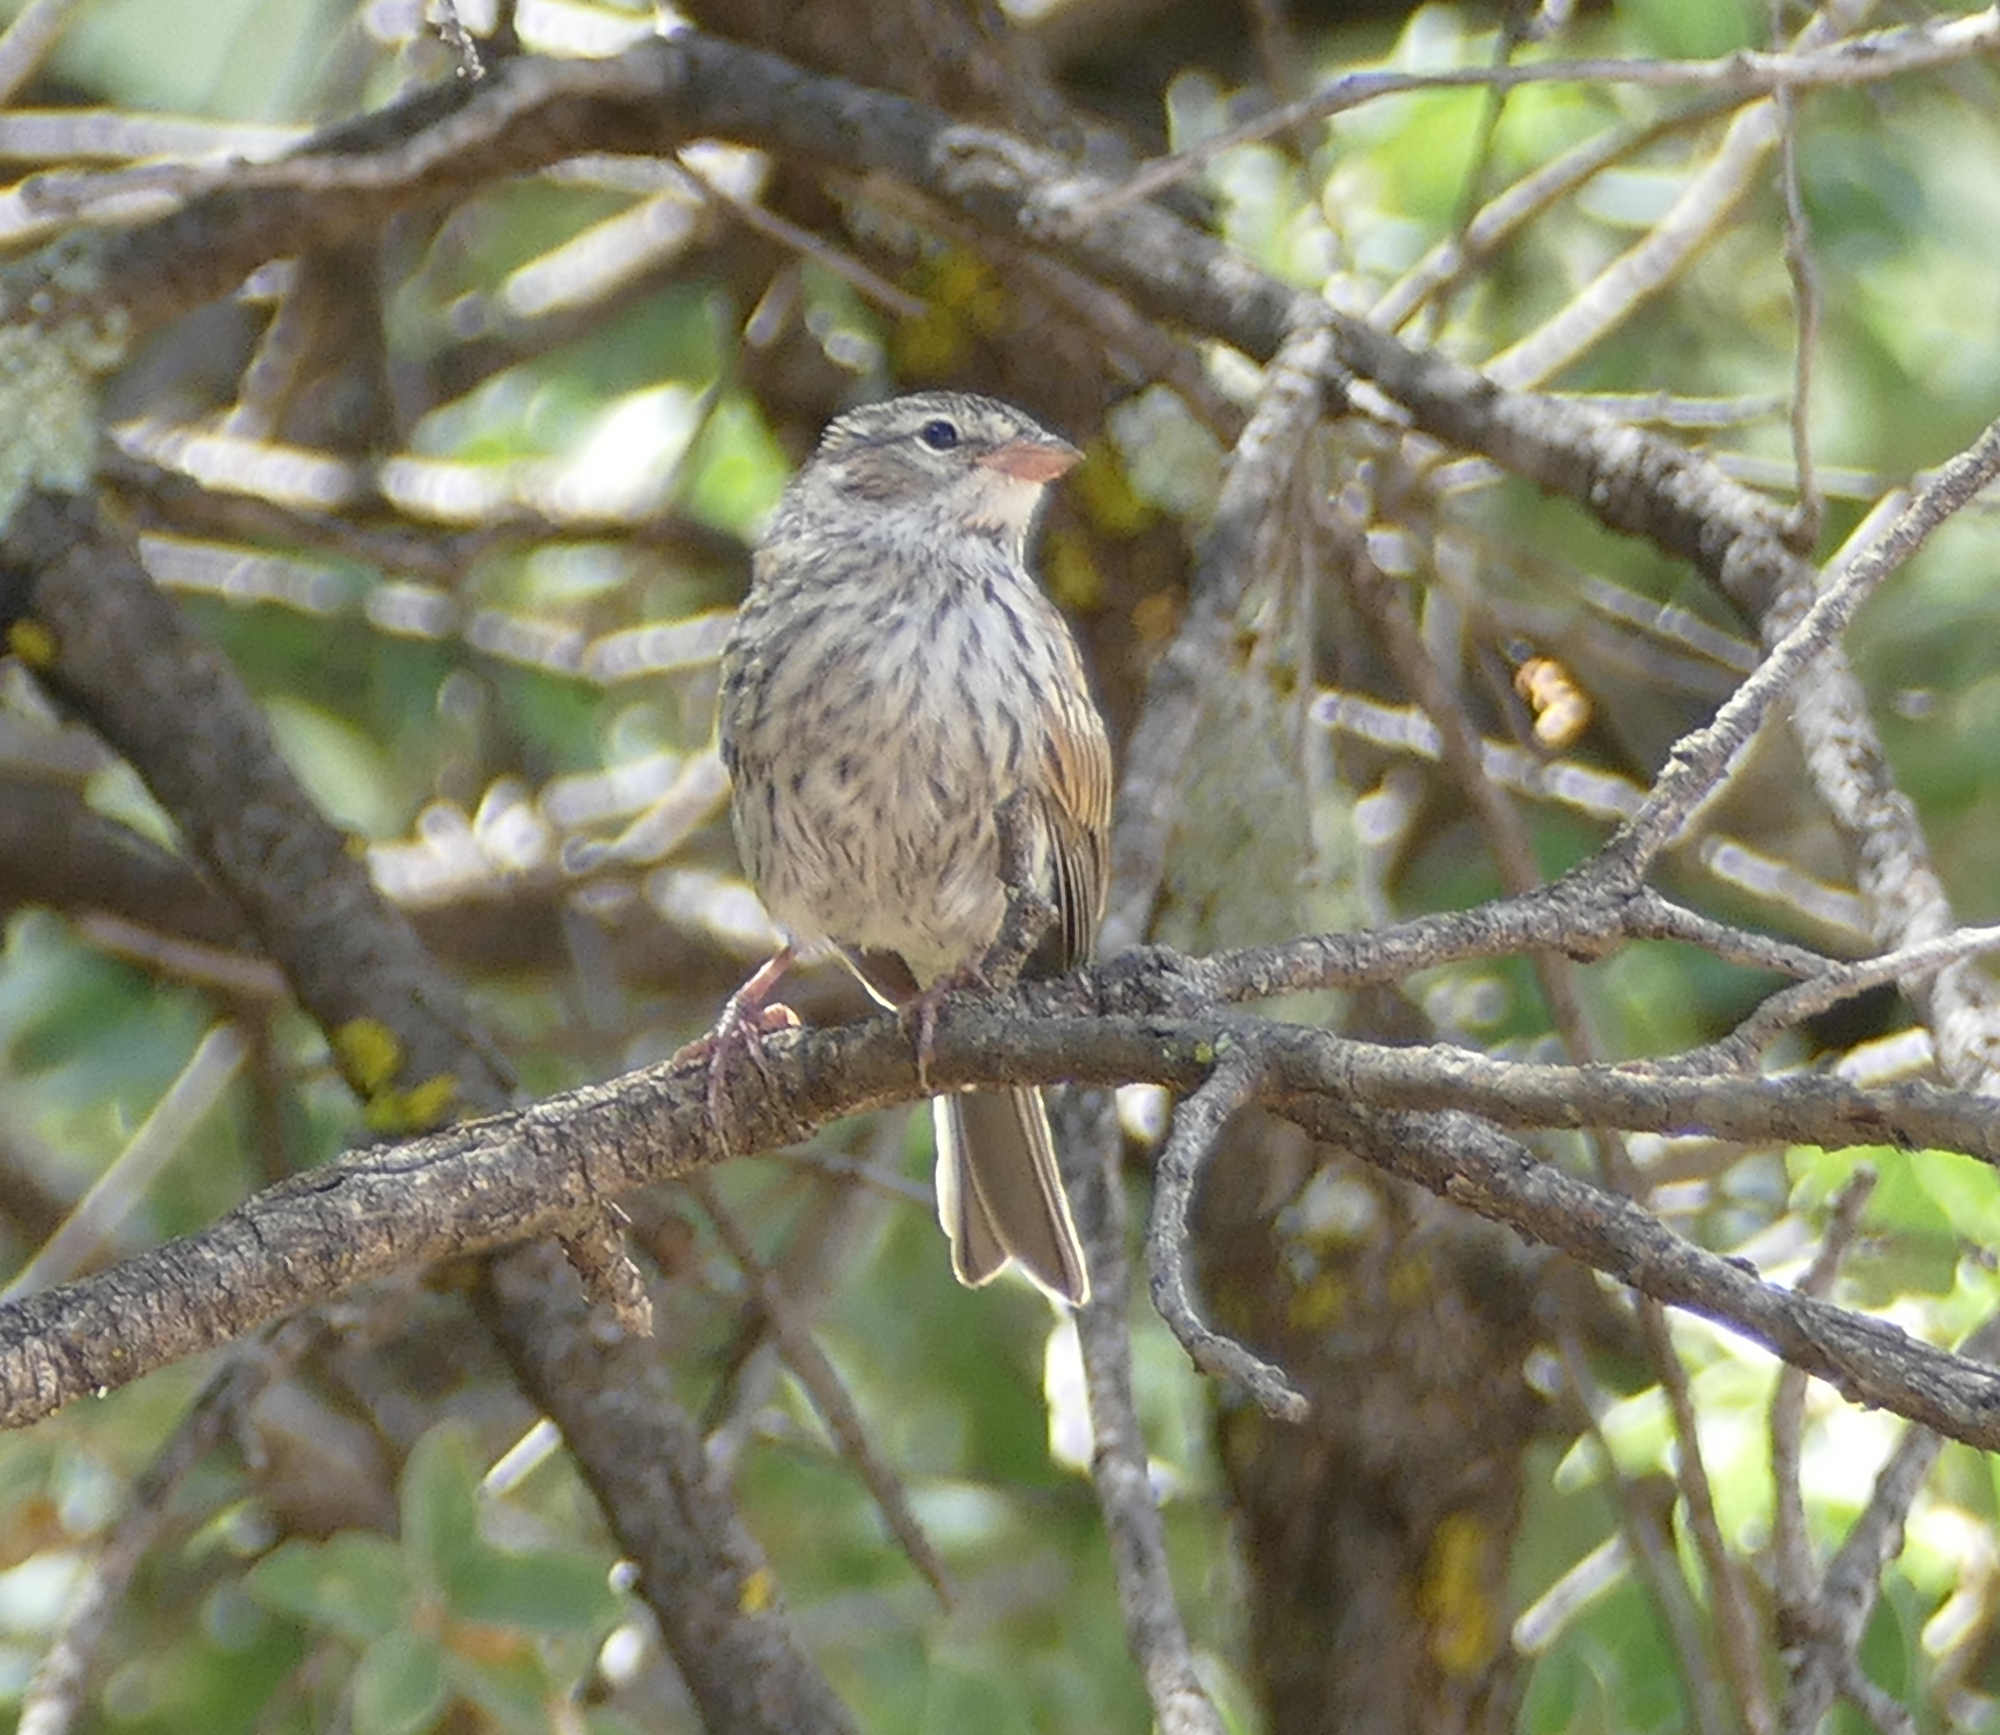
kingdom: Animalia
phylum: Chordata
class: Aves
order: Passeriformes
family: Passerellidae
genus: Spizella
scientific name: Spizella passerina
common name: Chipping sparrow
